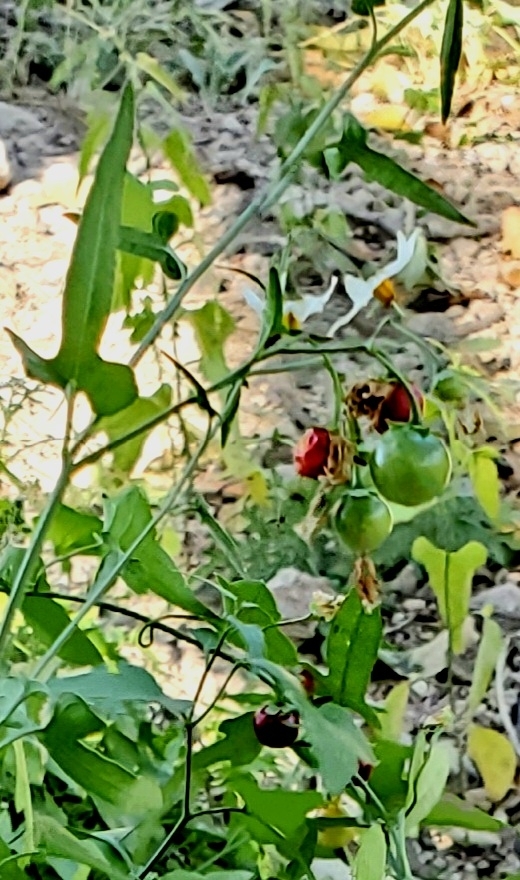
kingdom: Plantae
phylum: Tracheophyta
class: Magnoliopsida
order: Solanales
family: Solanaceae
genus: Solanum
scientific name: Solanum triquetrum
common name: Texas nightshade
